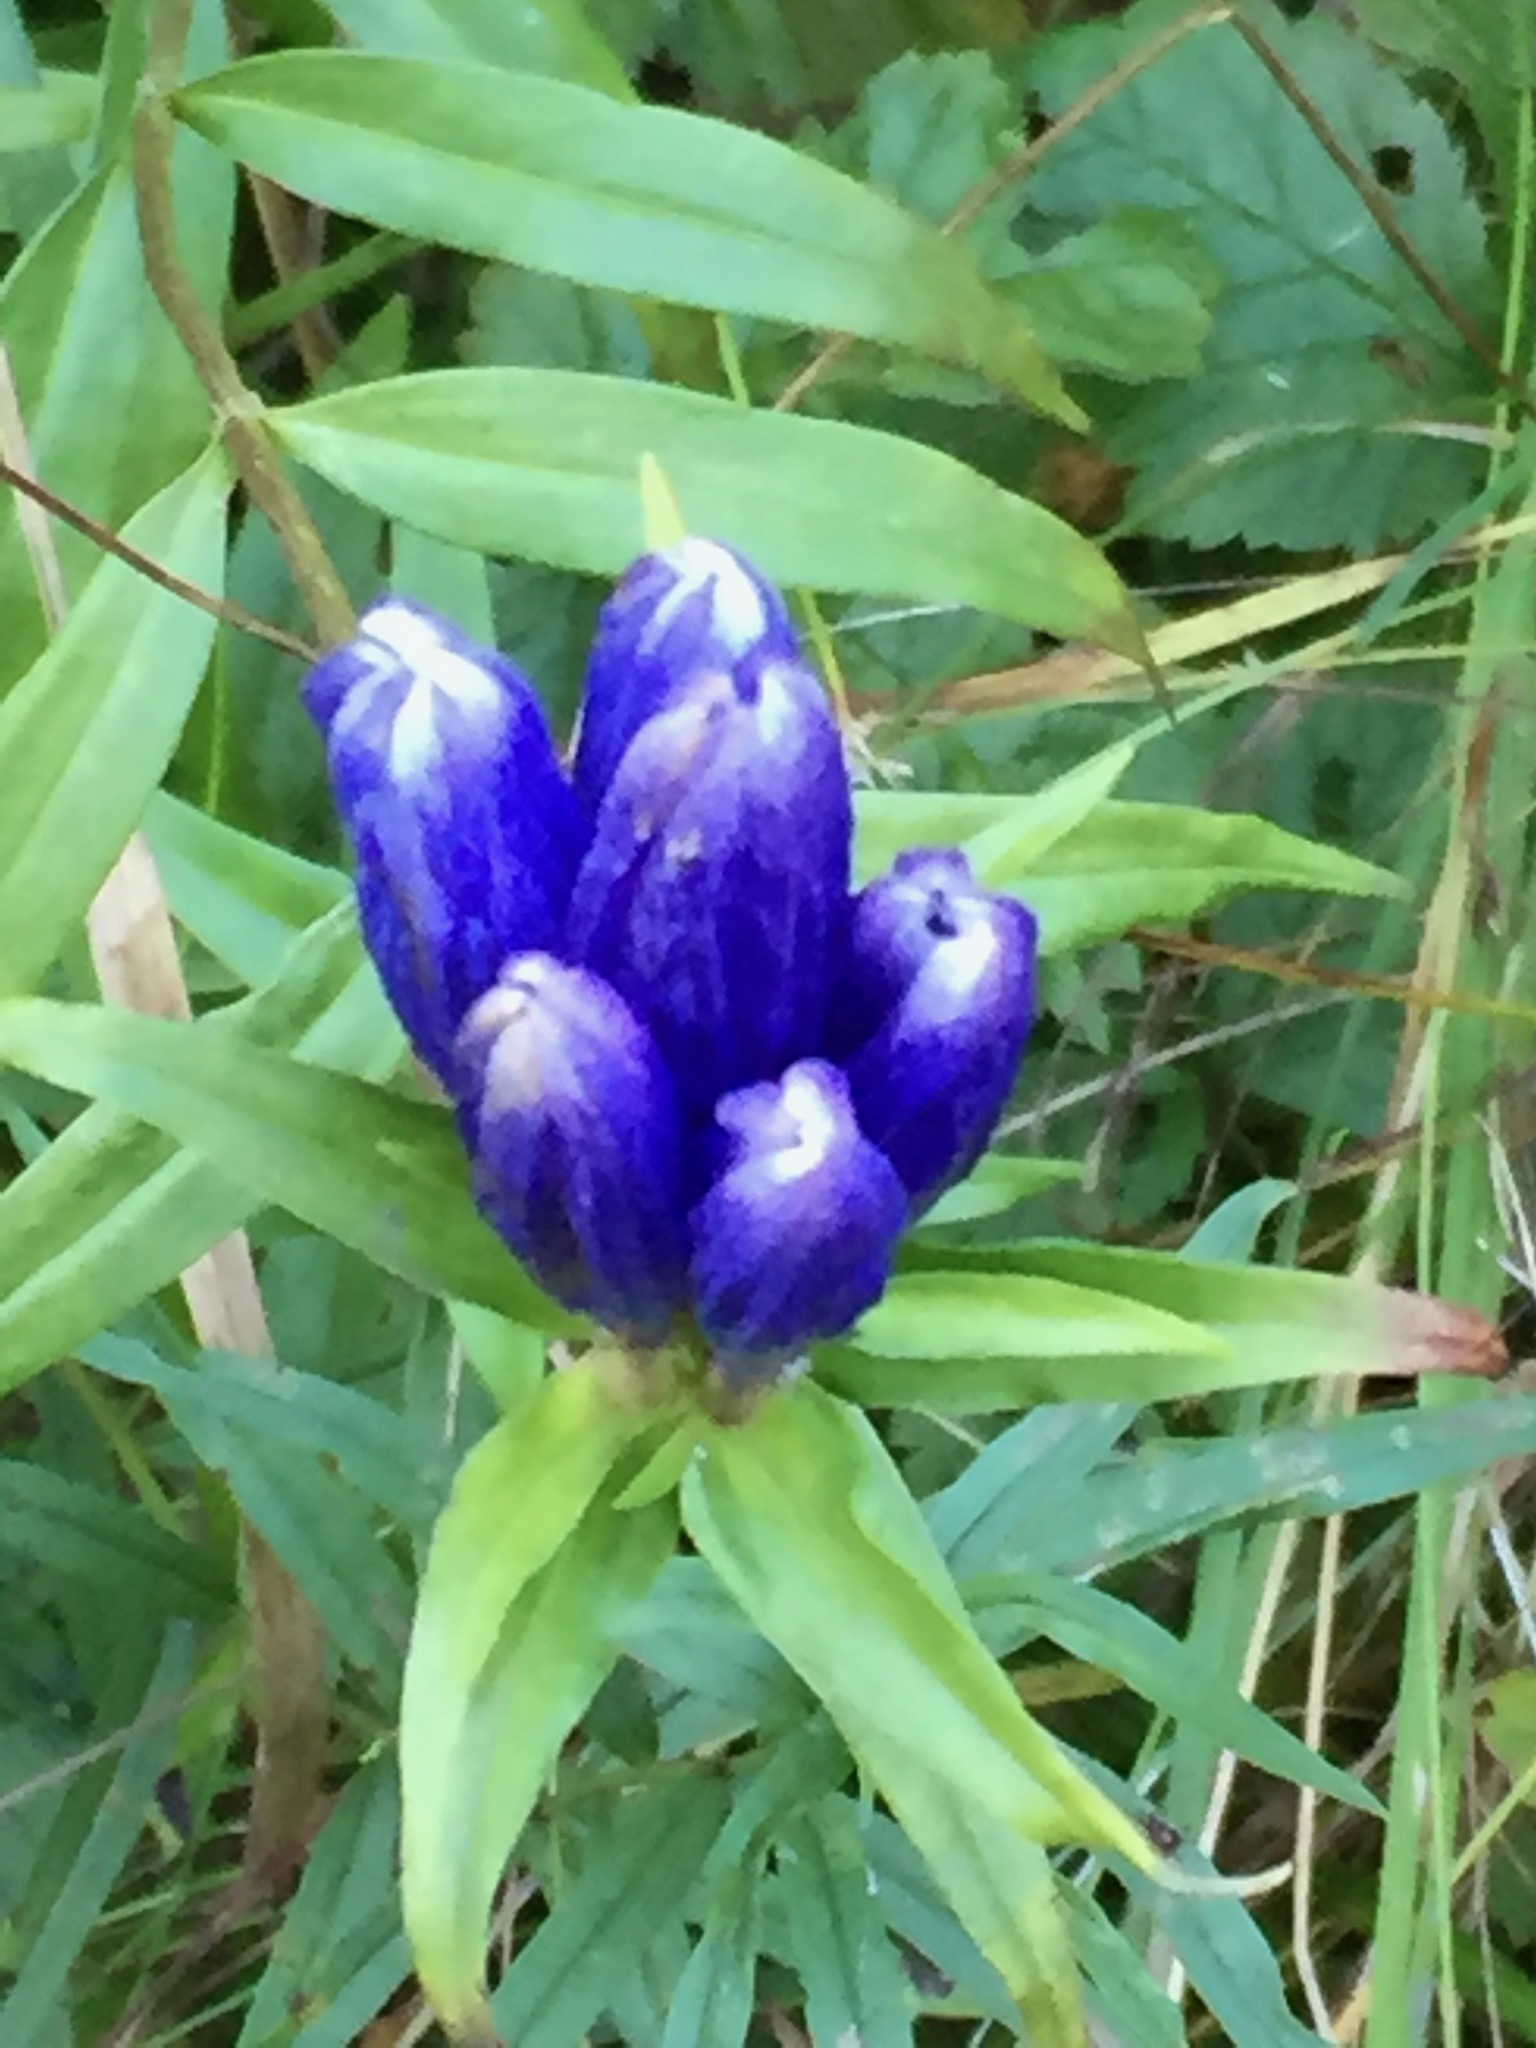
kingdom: Plantae
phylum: Tracheophyta
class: Magnoliopsida
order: Gentianales
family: Gentianaceae
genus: Gentiana
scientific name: Gentiana linearis
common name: Bastard gentian
